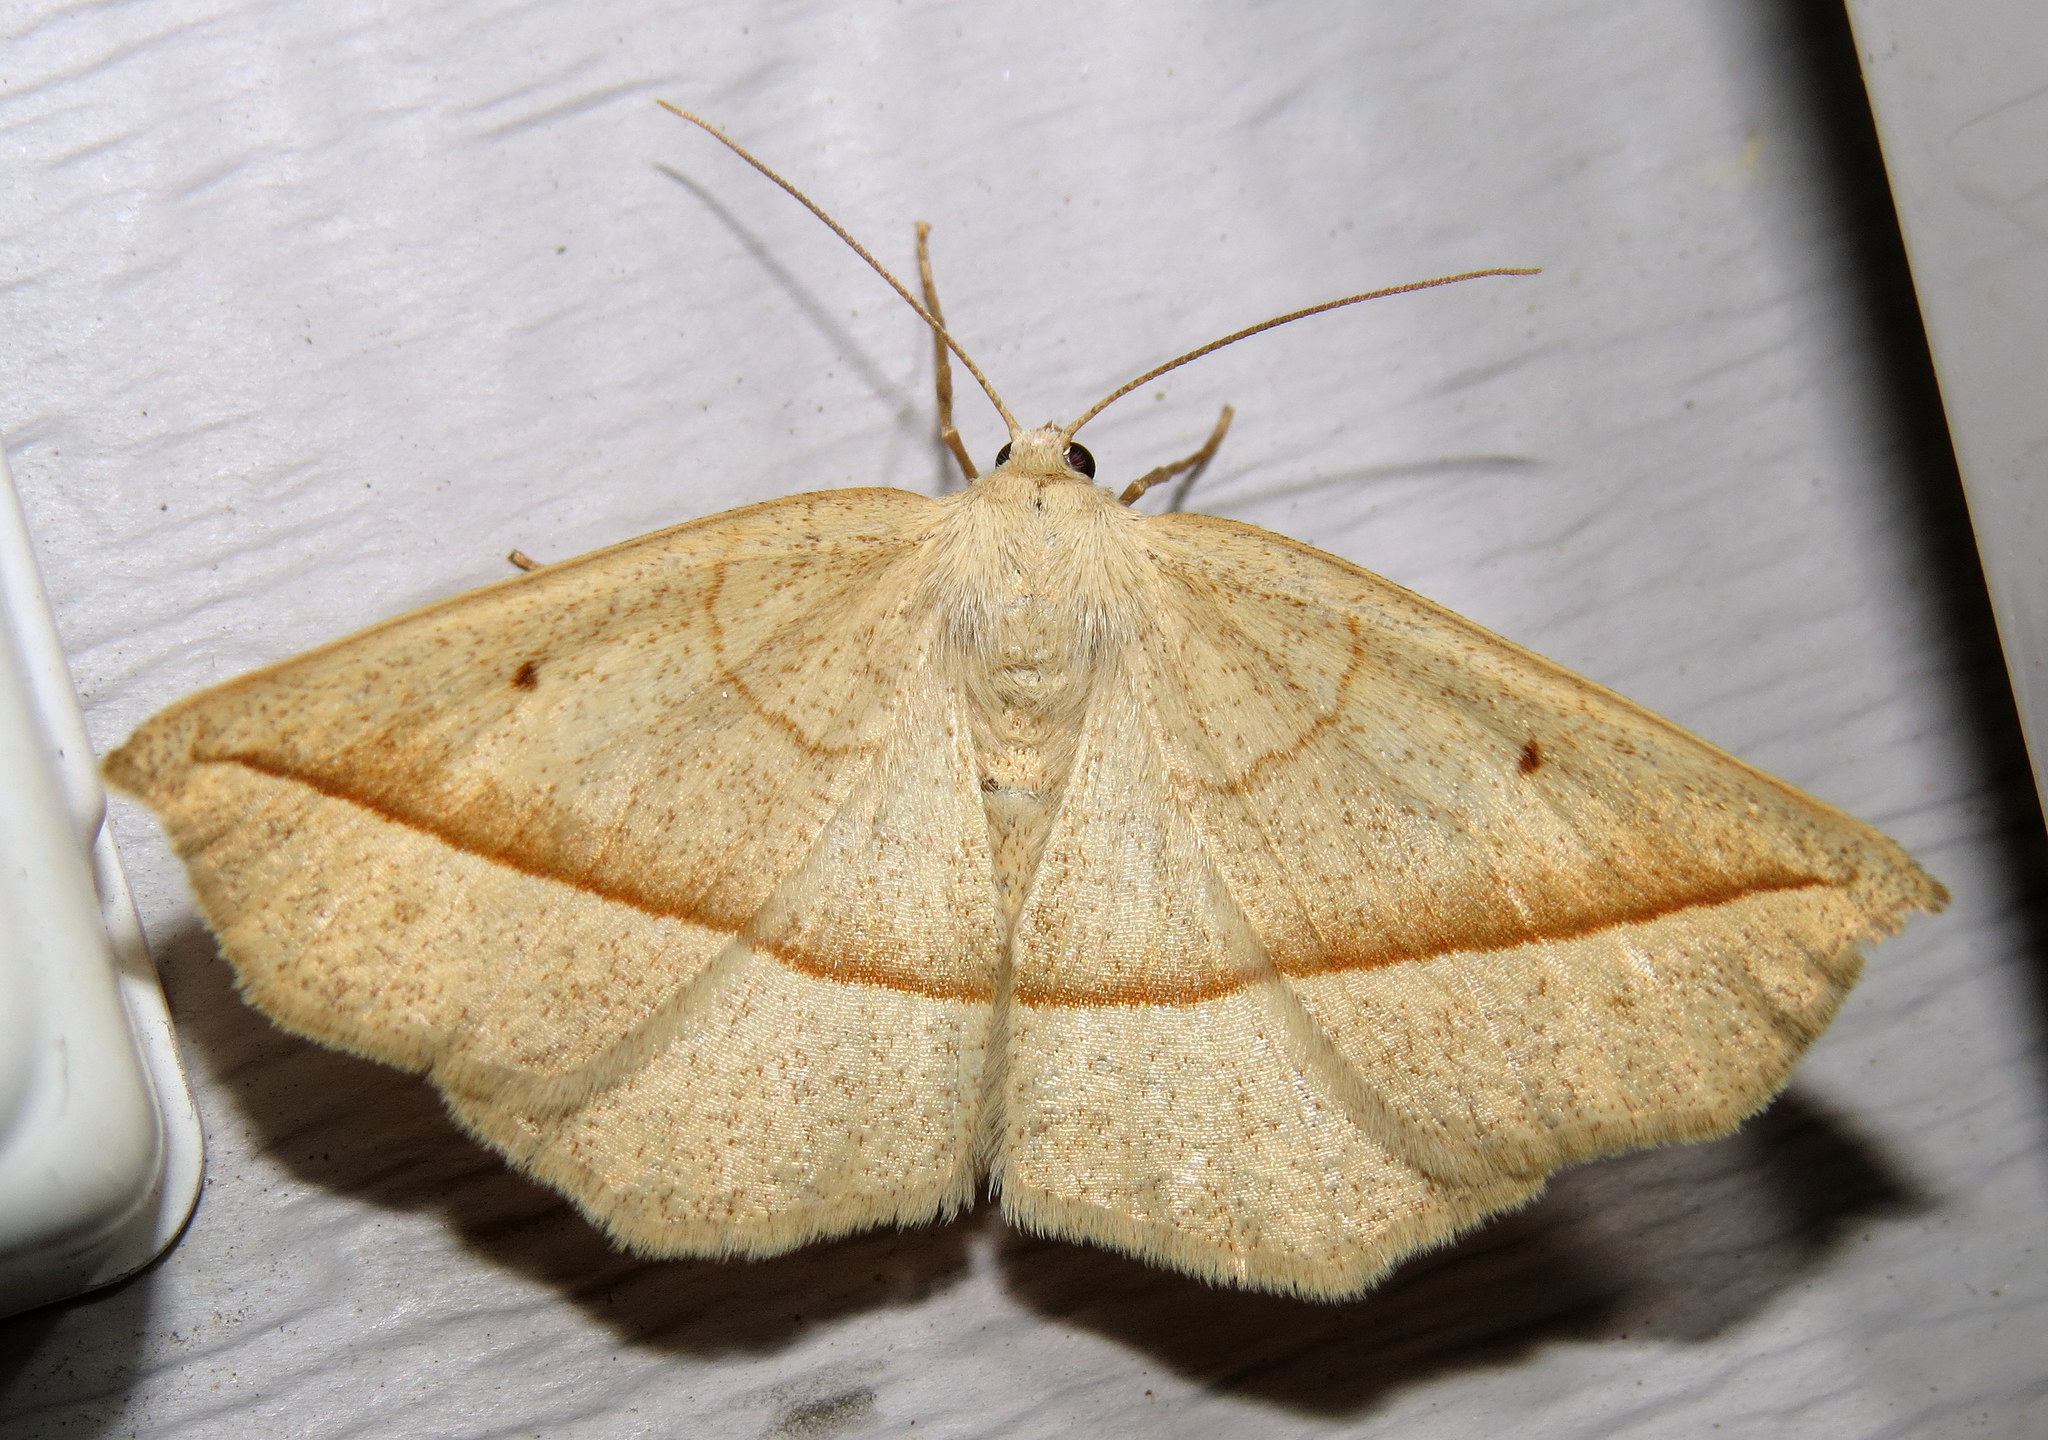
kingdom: Animalia
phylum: Arthropoda
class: Insecta
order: Lepidoptera
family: Geometridae
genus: Eusarca
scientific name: Eusarca confusaria
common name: Confused eusarca
